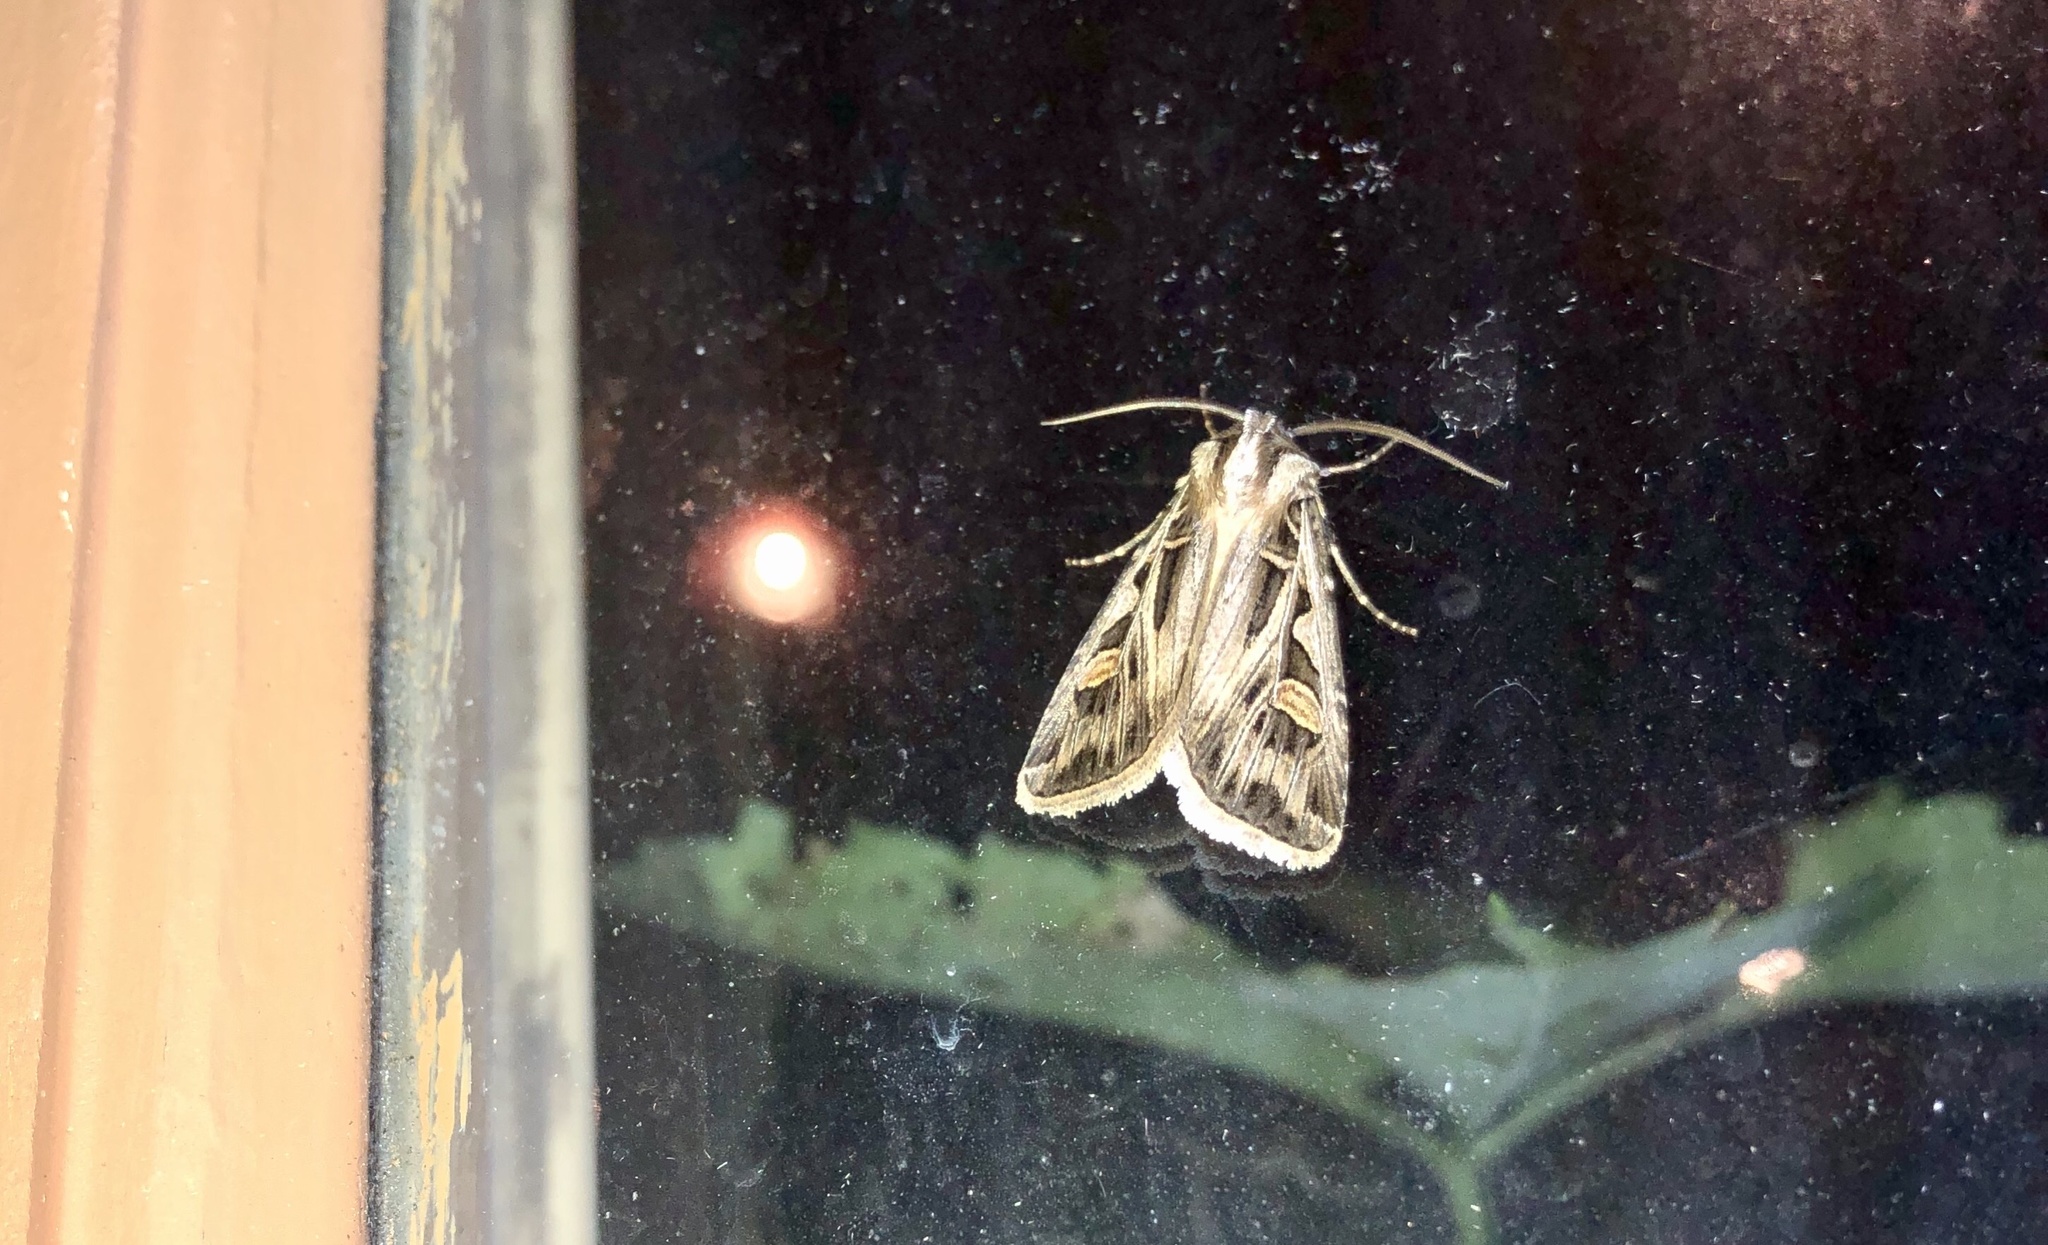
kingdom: Animalia
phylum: Arthropoda
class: Insecta
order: Lepidoptera
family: Noctuidae
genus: Feltia
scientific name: Feltia jaculifera
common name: Dingy cutworm moth
